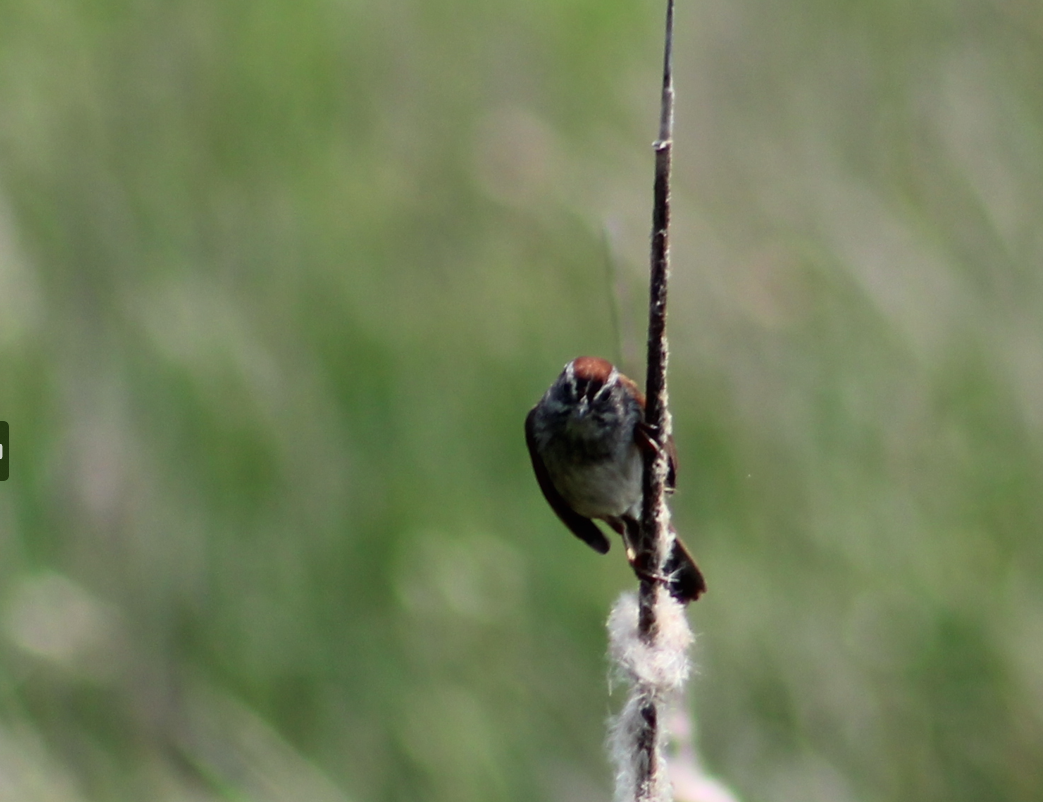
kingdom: Animalia
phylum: Chordata
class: Aves
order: Passeriformes
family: Passerellidae
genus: Melospiza
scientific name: Melospiza georgiana
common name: Swamp sparrow
